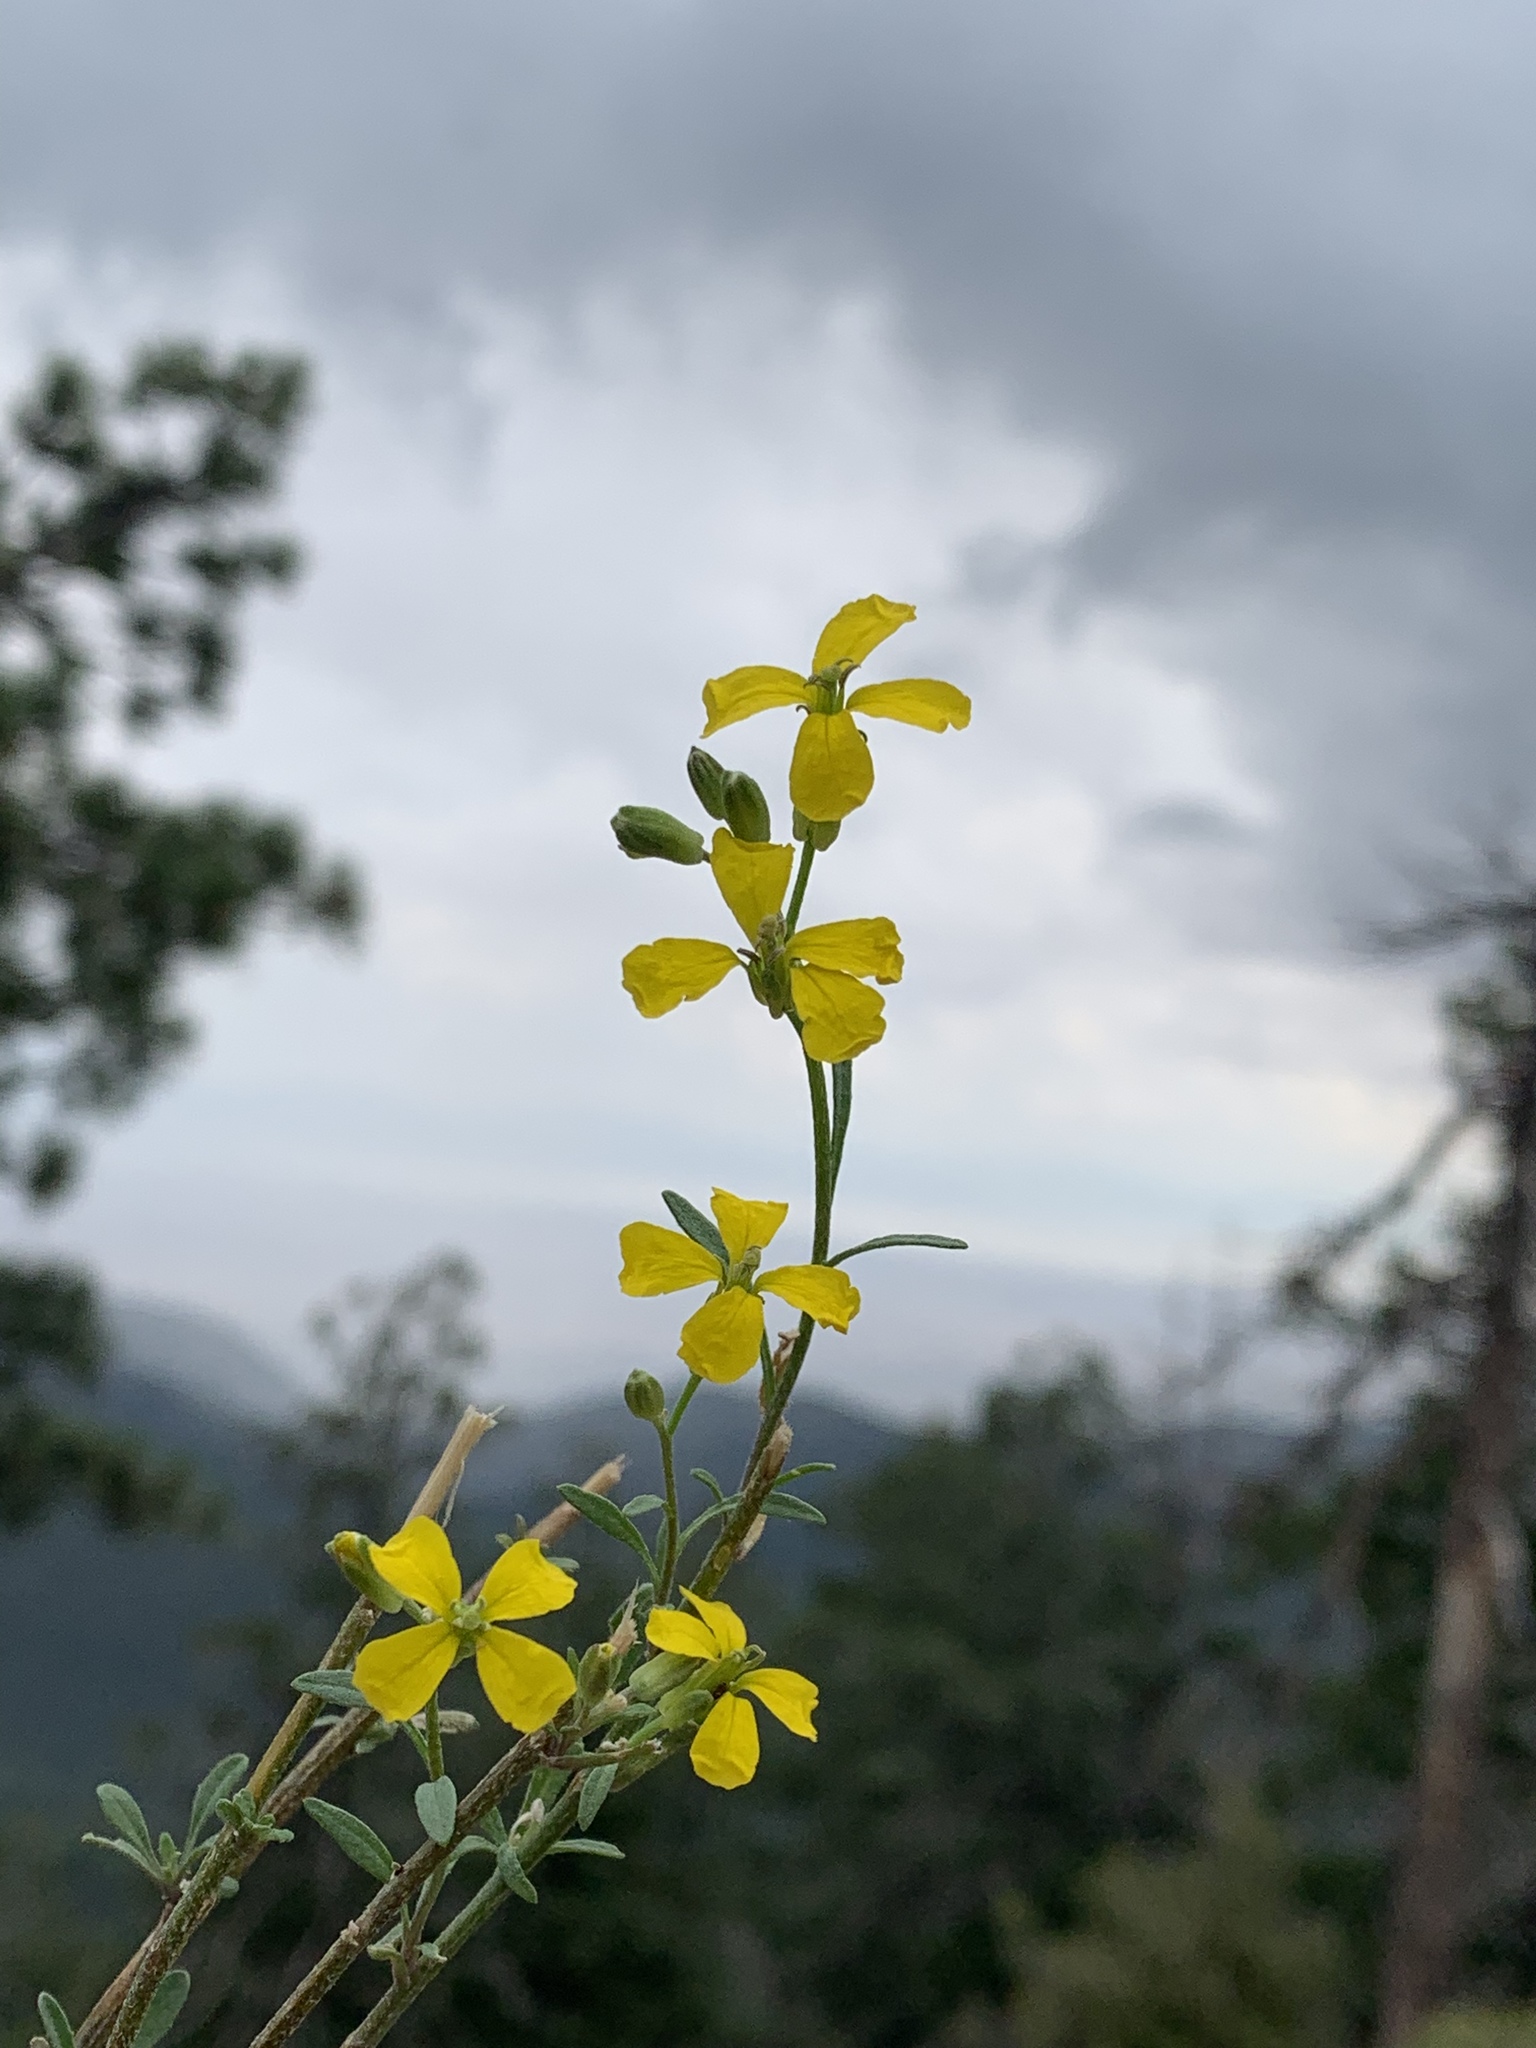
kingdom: Plantae
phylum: Tracheophyta
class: Magnoliopsida
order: Brassicales
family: Brassicaceae
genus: Erysimum
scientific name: Erysimum capitatum
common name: Western wallflower
